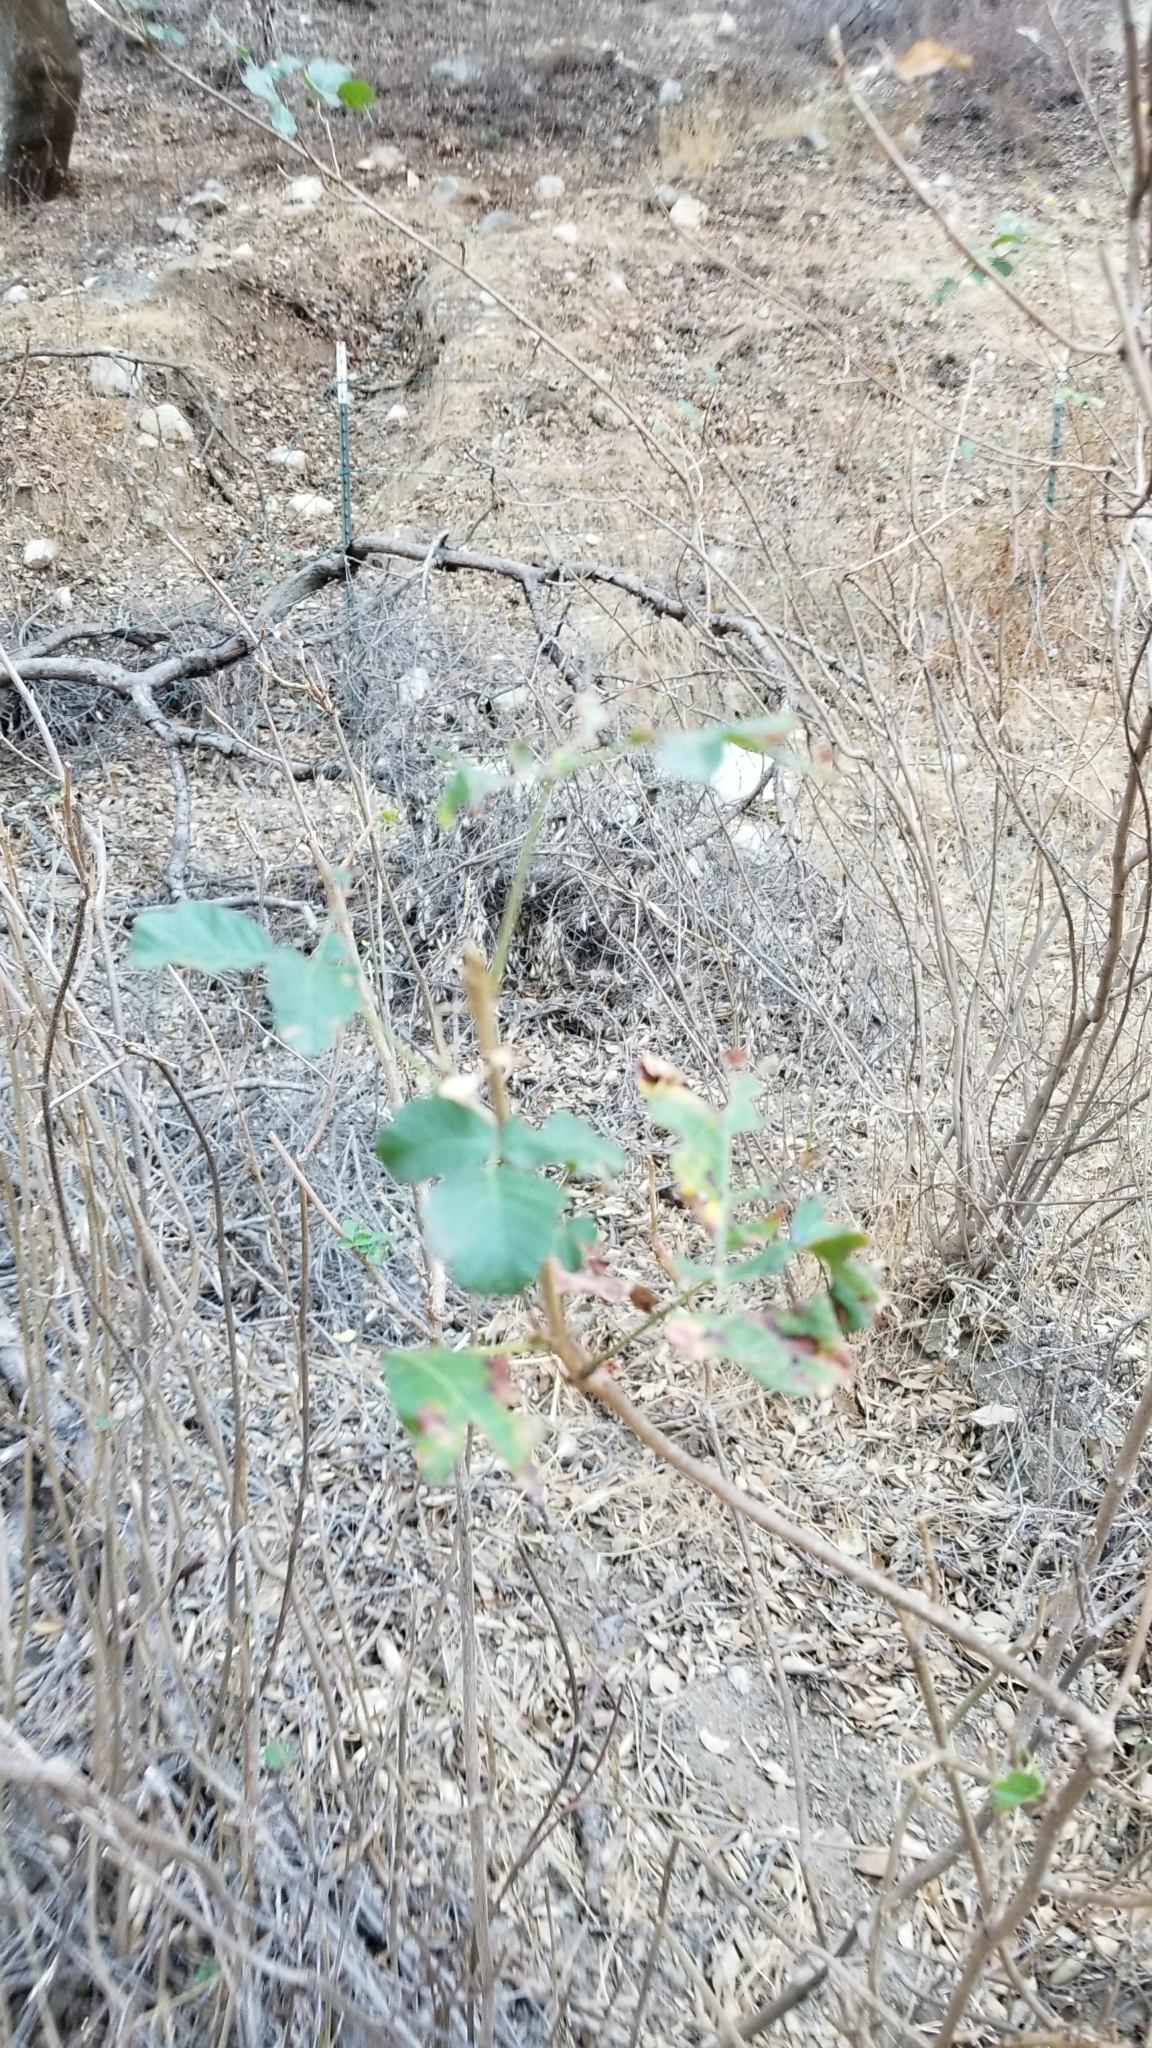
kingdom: Plantae
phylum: Tracheophyta
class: Magnoliopsida
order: Sapindales
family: Anacardiaceae
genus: Toxicodendron
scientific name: Toxicodendron diversilobum
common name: Pacific poison-oak
